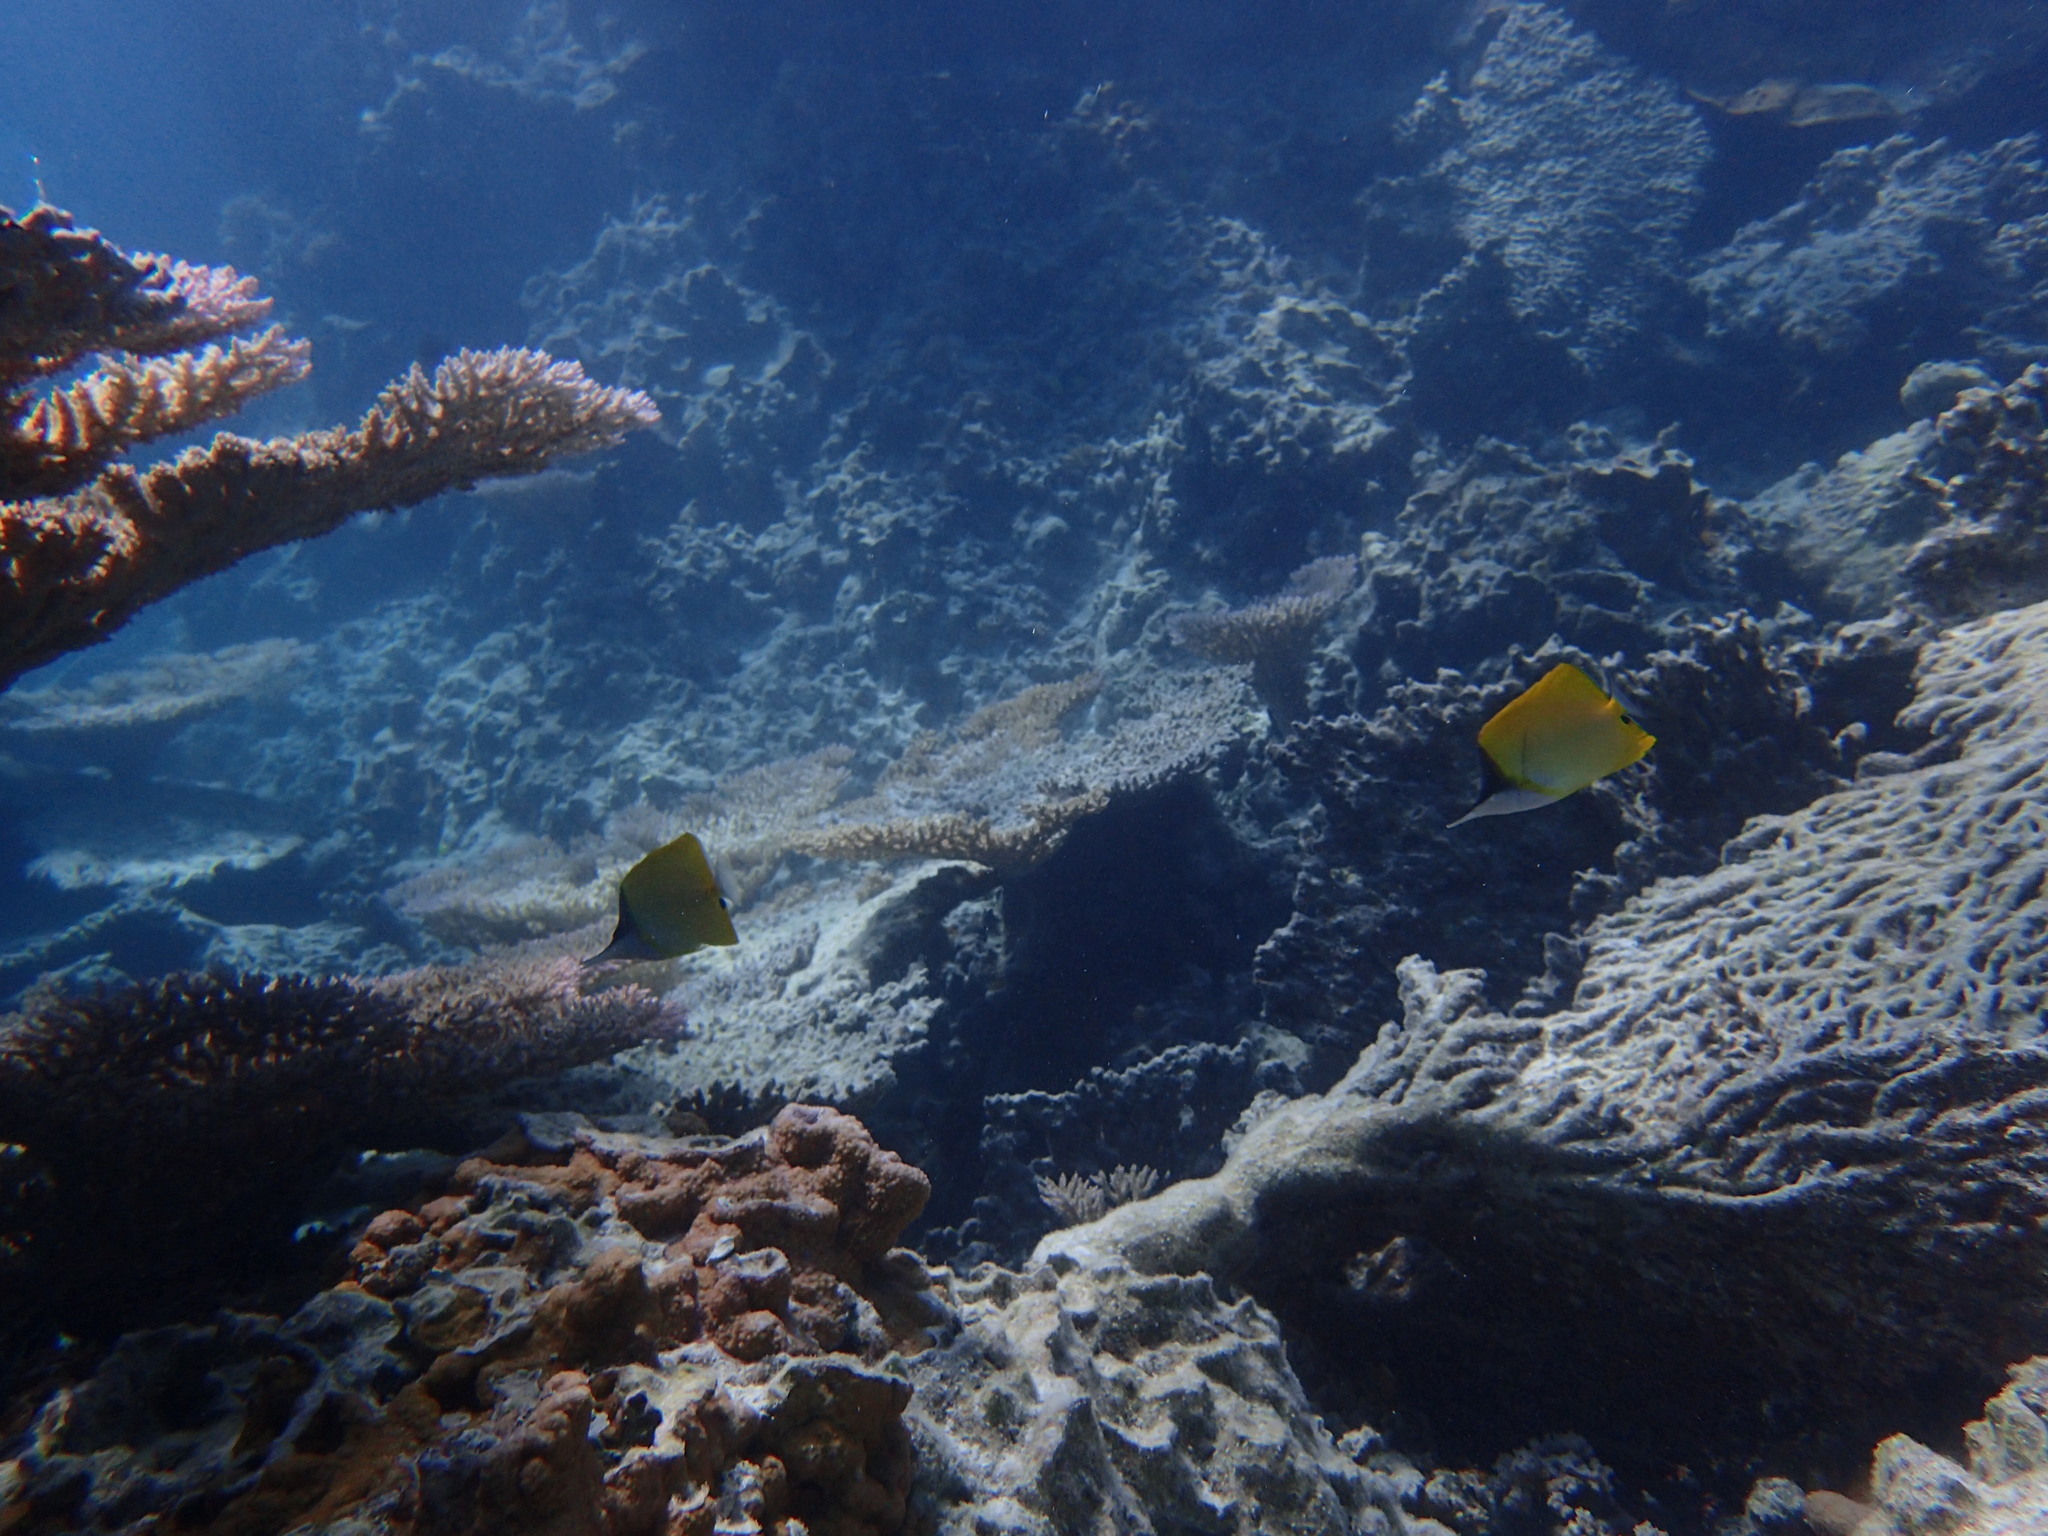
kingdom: Animalia
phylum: Chordata
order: Perciformes
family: Chaetodontidae
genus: Forcipiger
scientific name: Forcipiger flavissimus
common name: Forcepsfish
